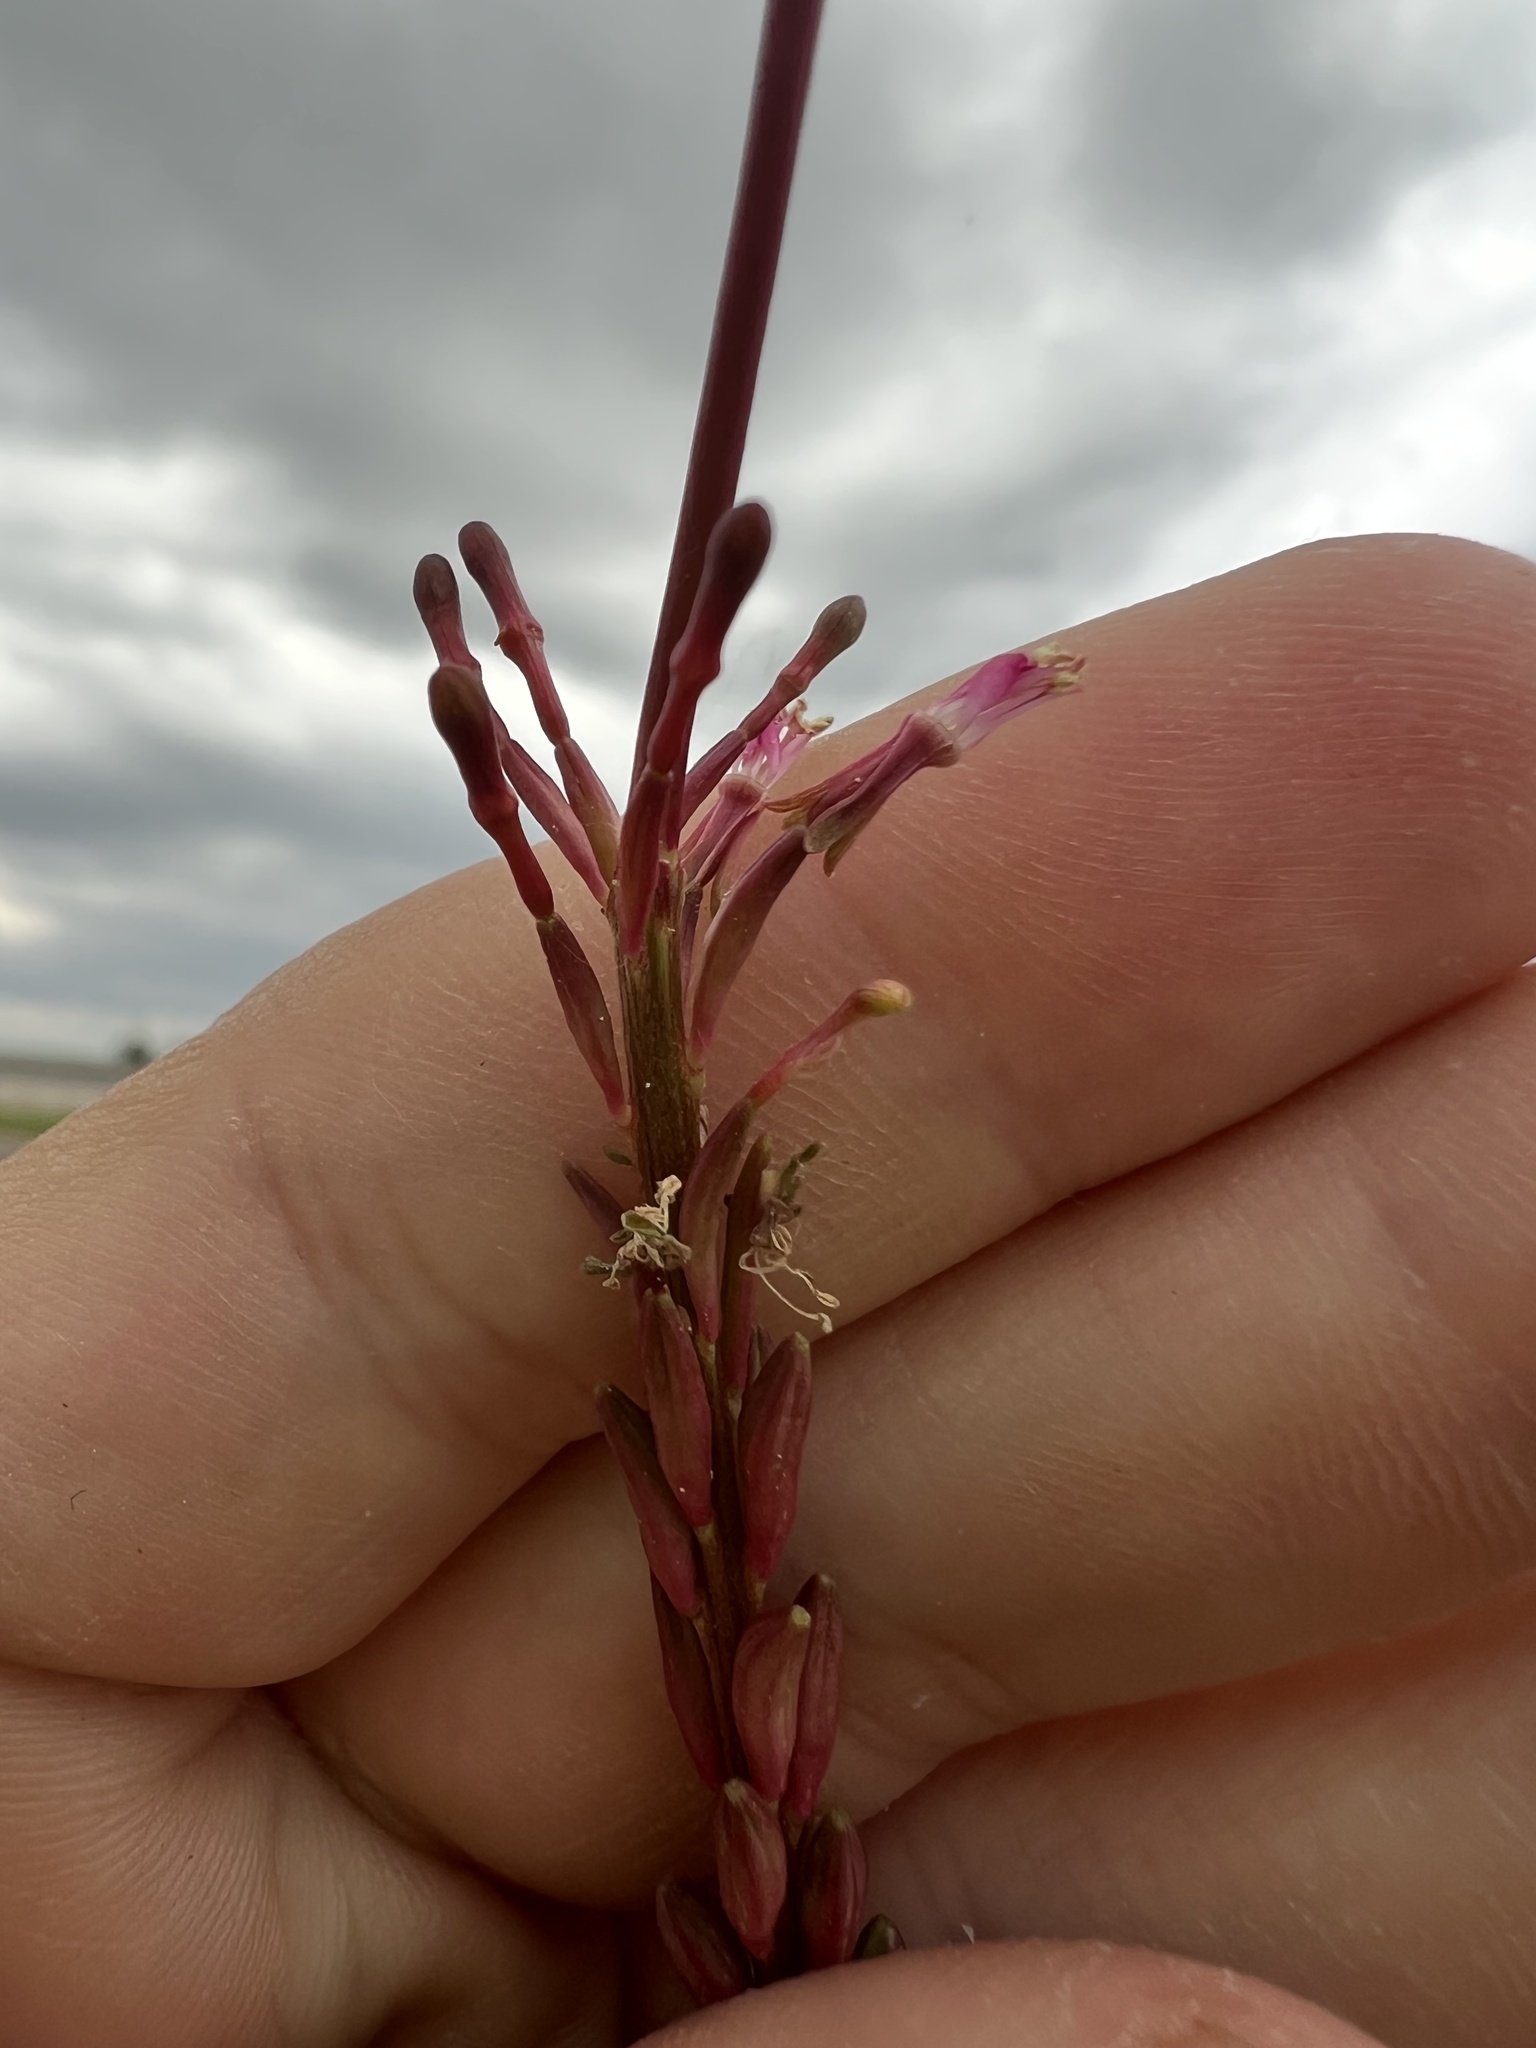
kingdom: Plantae
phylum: Tracheophyta
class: Magnoliopsida
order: Myrtales
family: Onagraceae
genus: Oenothera
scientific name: Oenothera curtiflora
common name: Velvetweed
